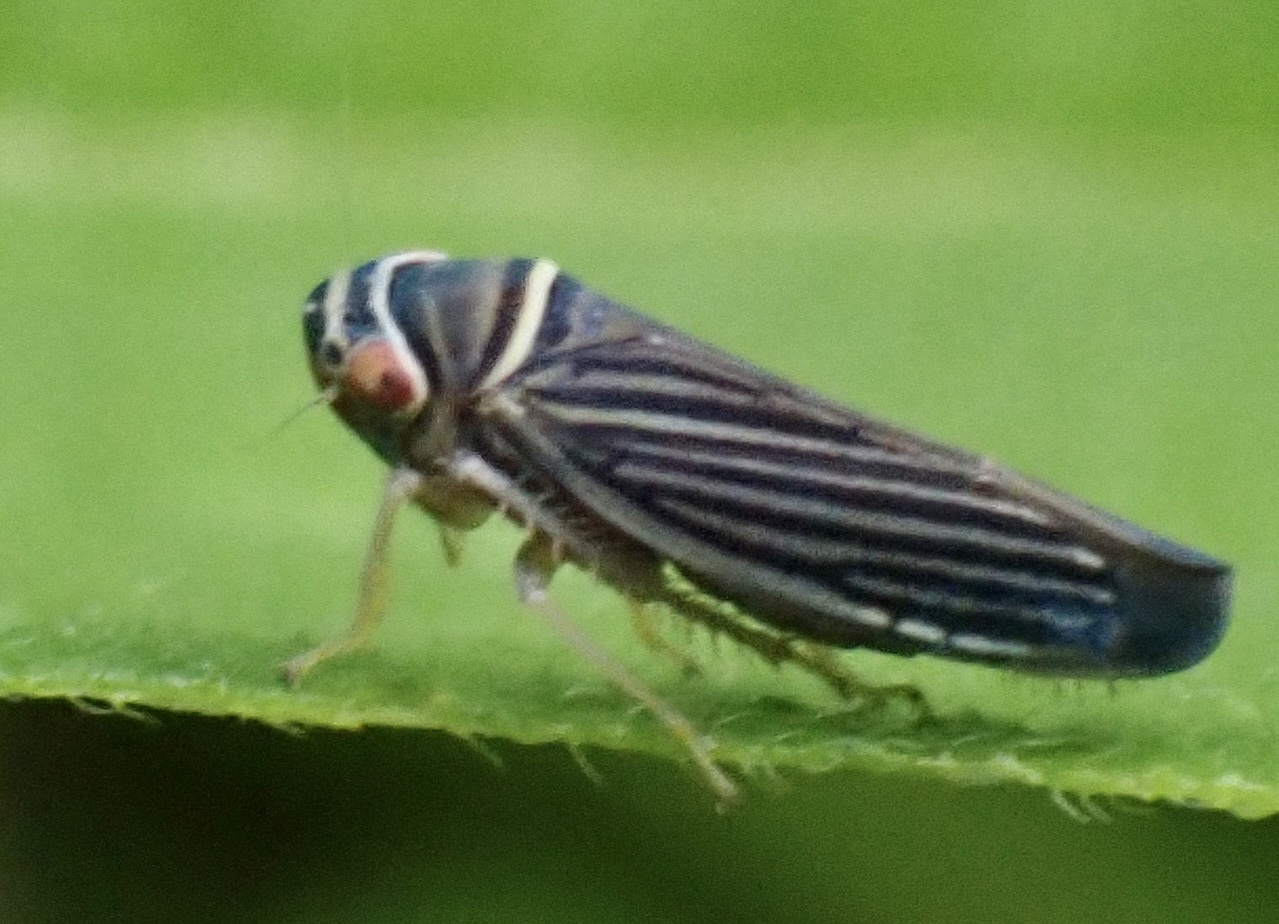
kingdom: Animalia
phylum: Arthropoda
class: Insecta
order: Hemiptera
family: Cicadellidae
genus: Tylozygus
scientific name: Tylozygus bifidus
